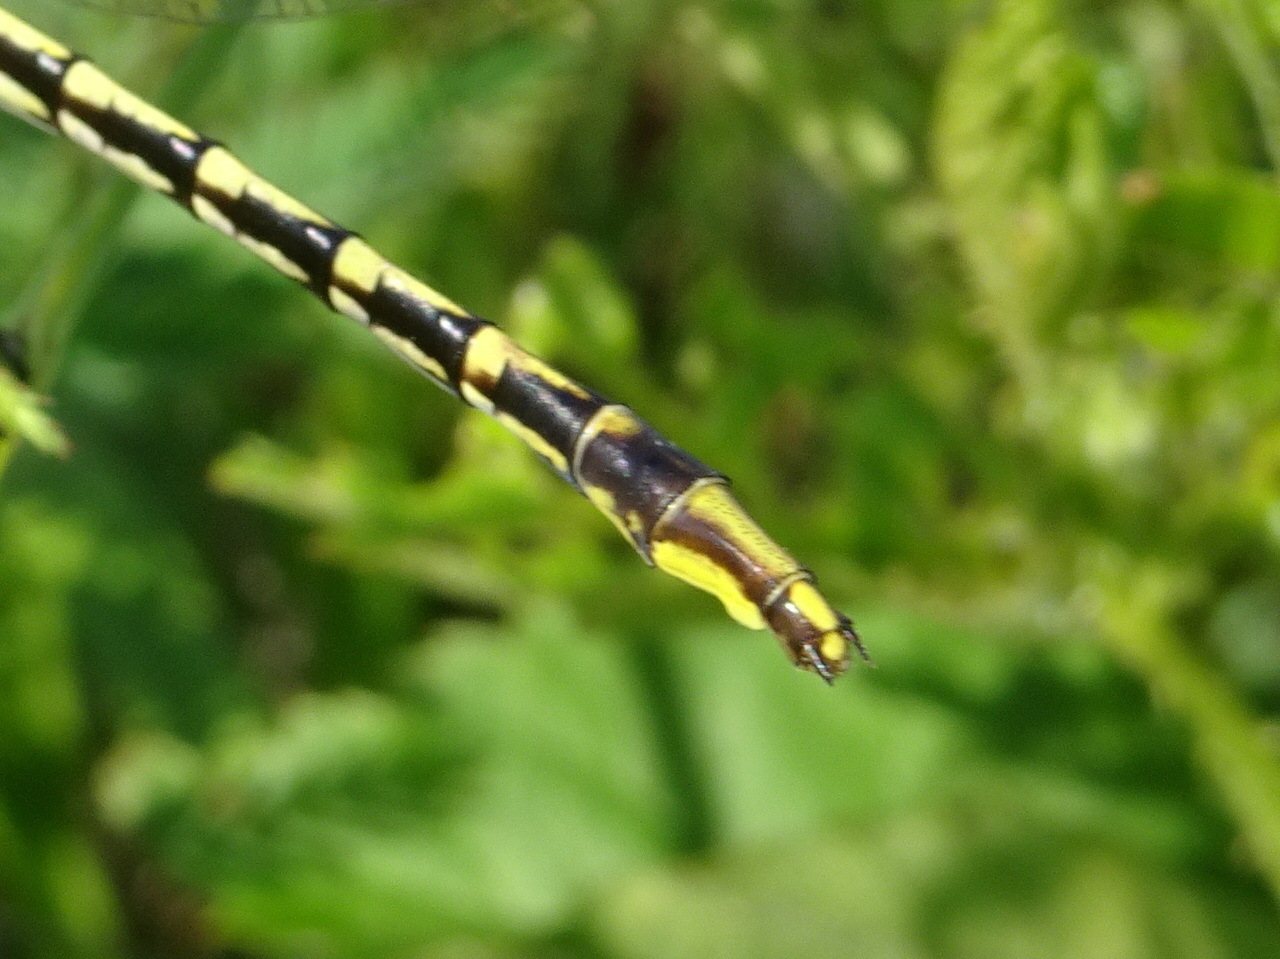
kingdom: Animalia
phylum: Arthropoda
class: Insecta
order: Odonata
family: Gomphidae
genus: Phanogomphus
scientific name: Phanogomphus militaris
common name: Sulphur-tipped clubtail
